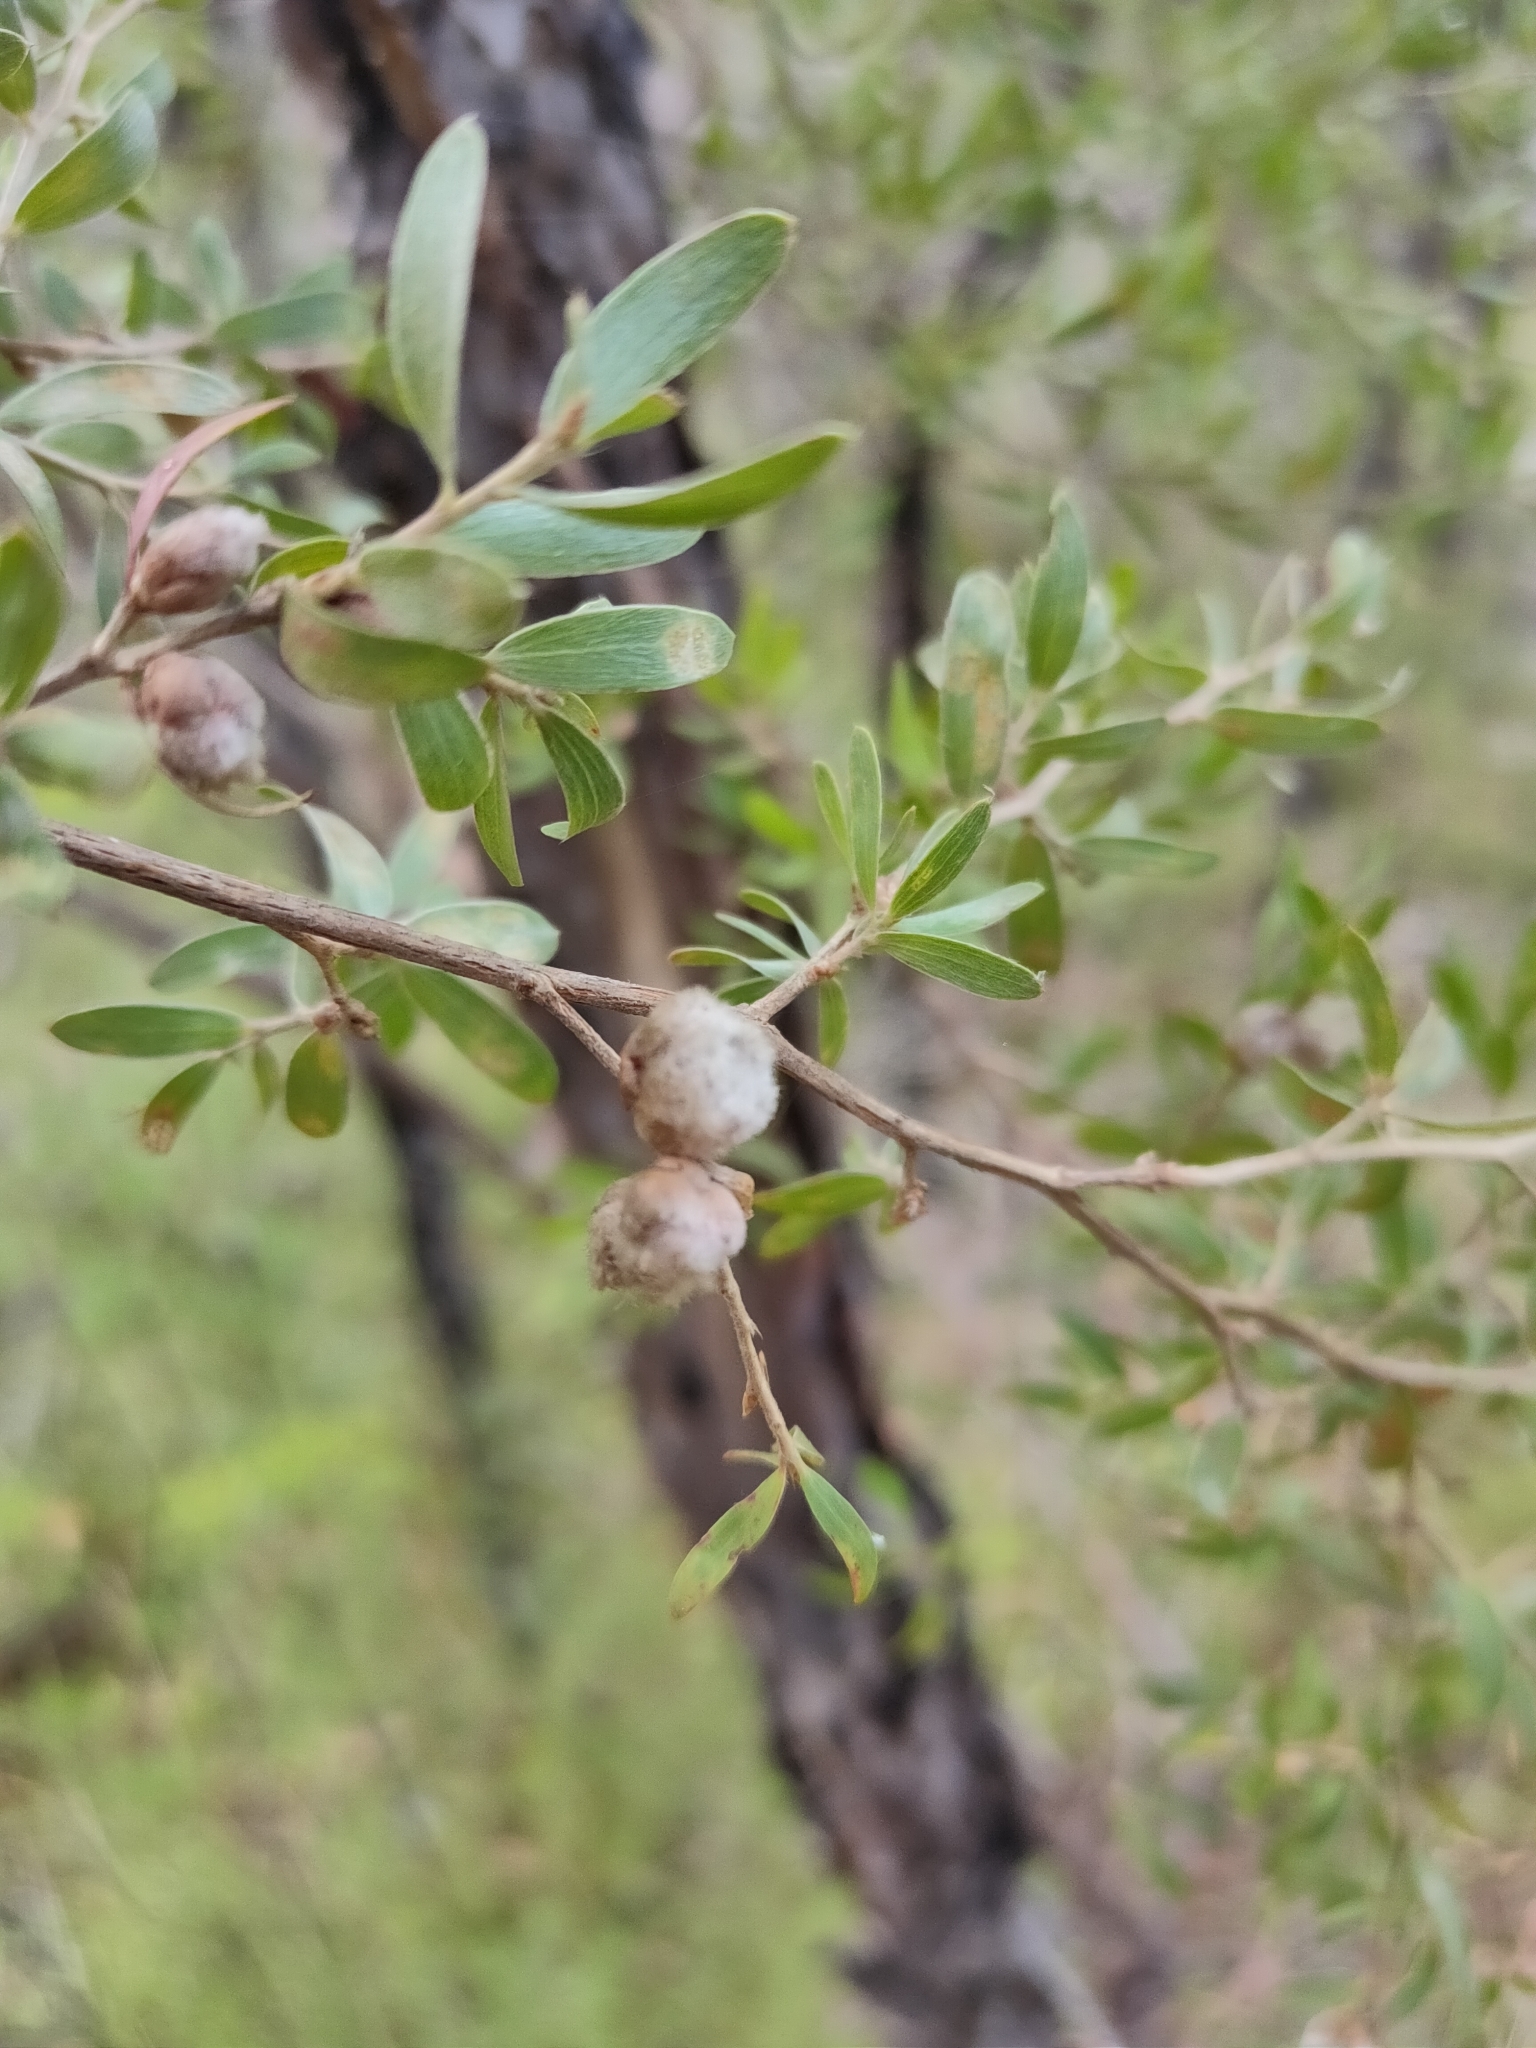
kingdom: Plantae
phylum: Tracheophyta
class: Magnoliopsida
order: Myrtales
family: Myrtaceae
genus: Leptospermum
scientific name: Leptospermum trinervium
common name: Flaky-barked tea-tree
